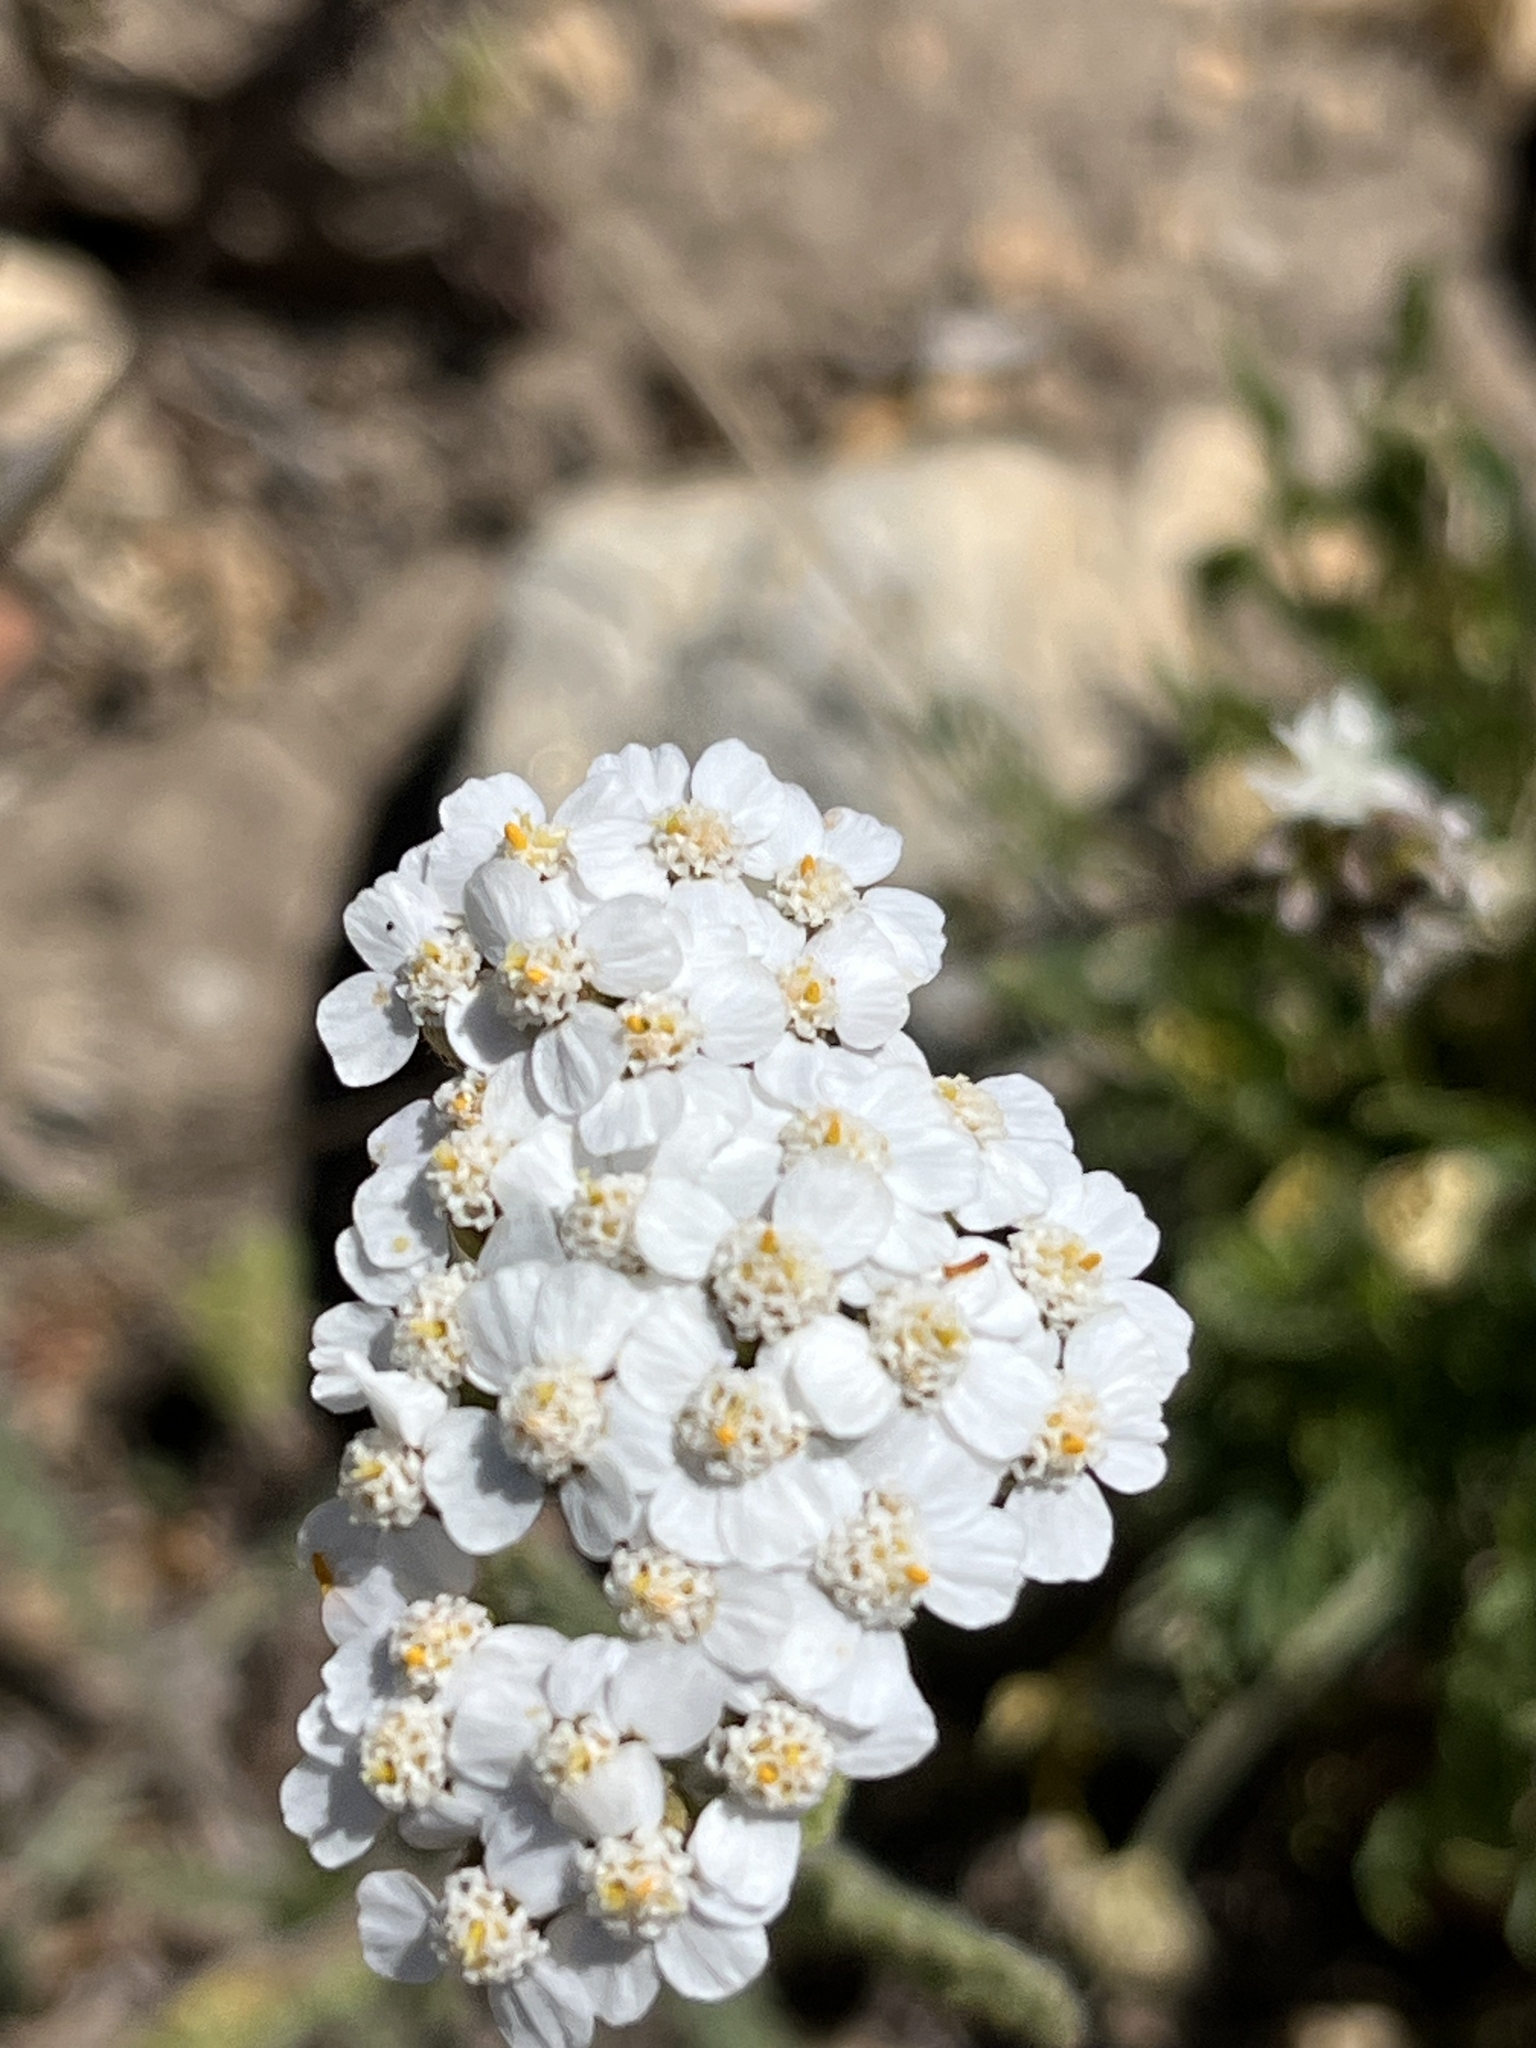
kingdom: Plantae
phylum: Tracheophyta
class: Magnoliopsida
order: Asterales
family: Asteraceae
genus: Achillea
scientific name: Achillea millefolium
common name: Yarrow
